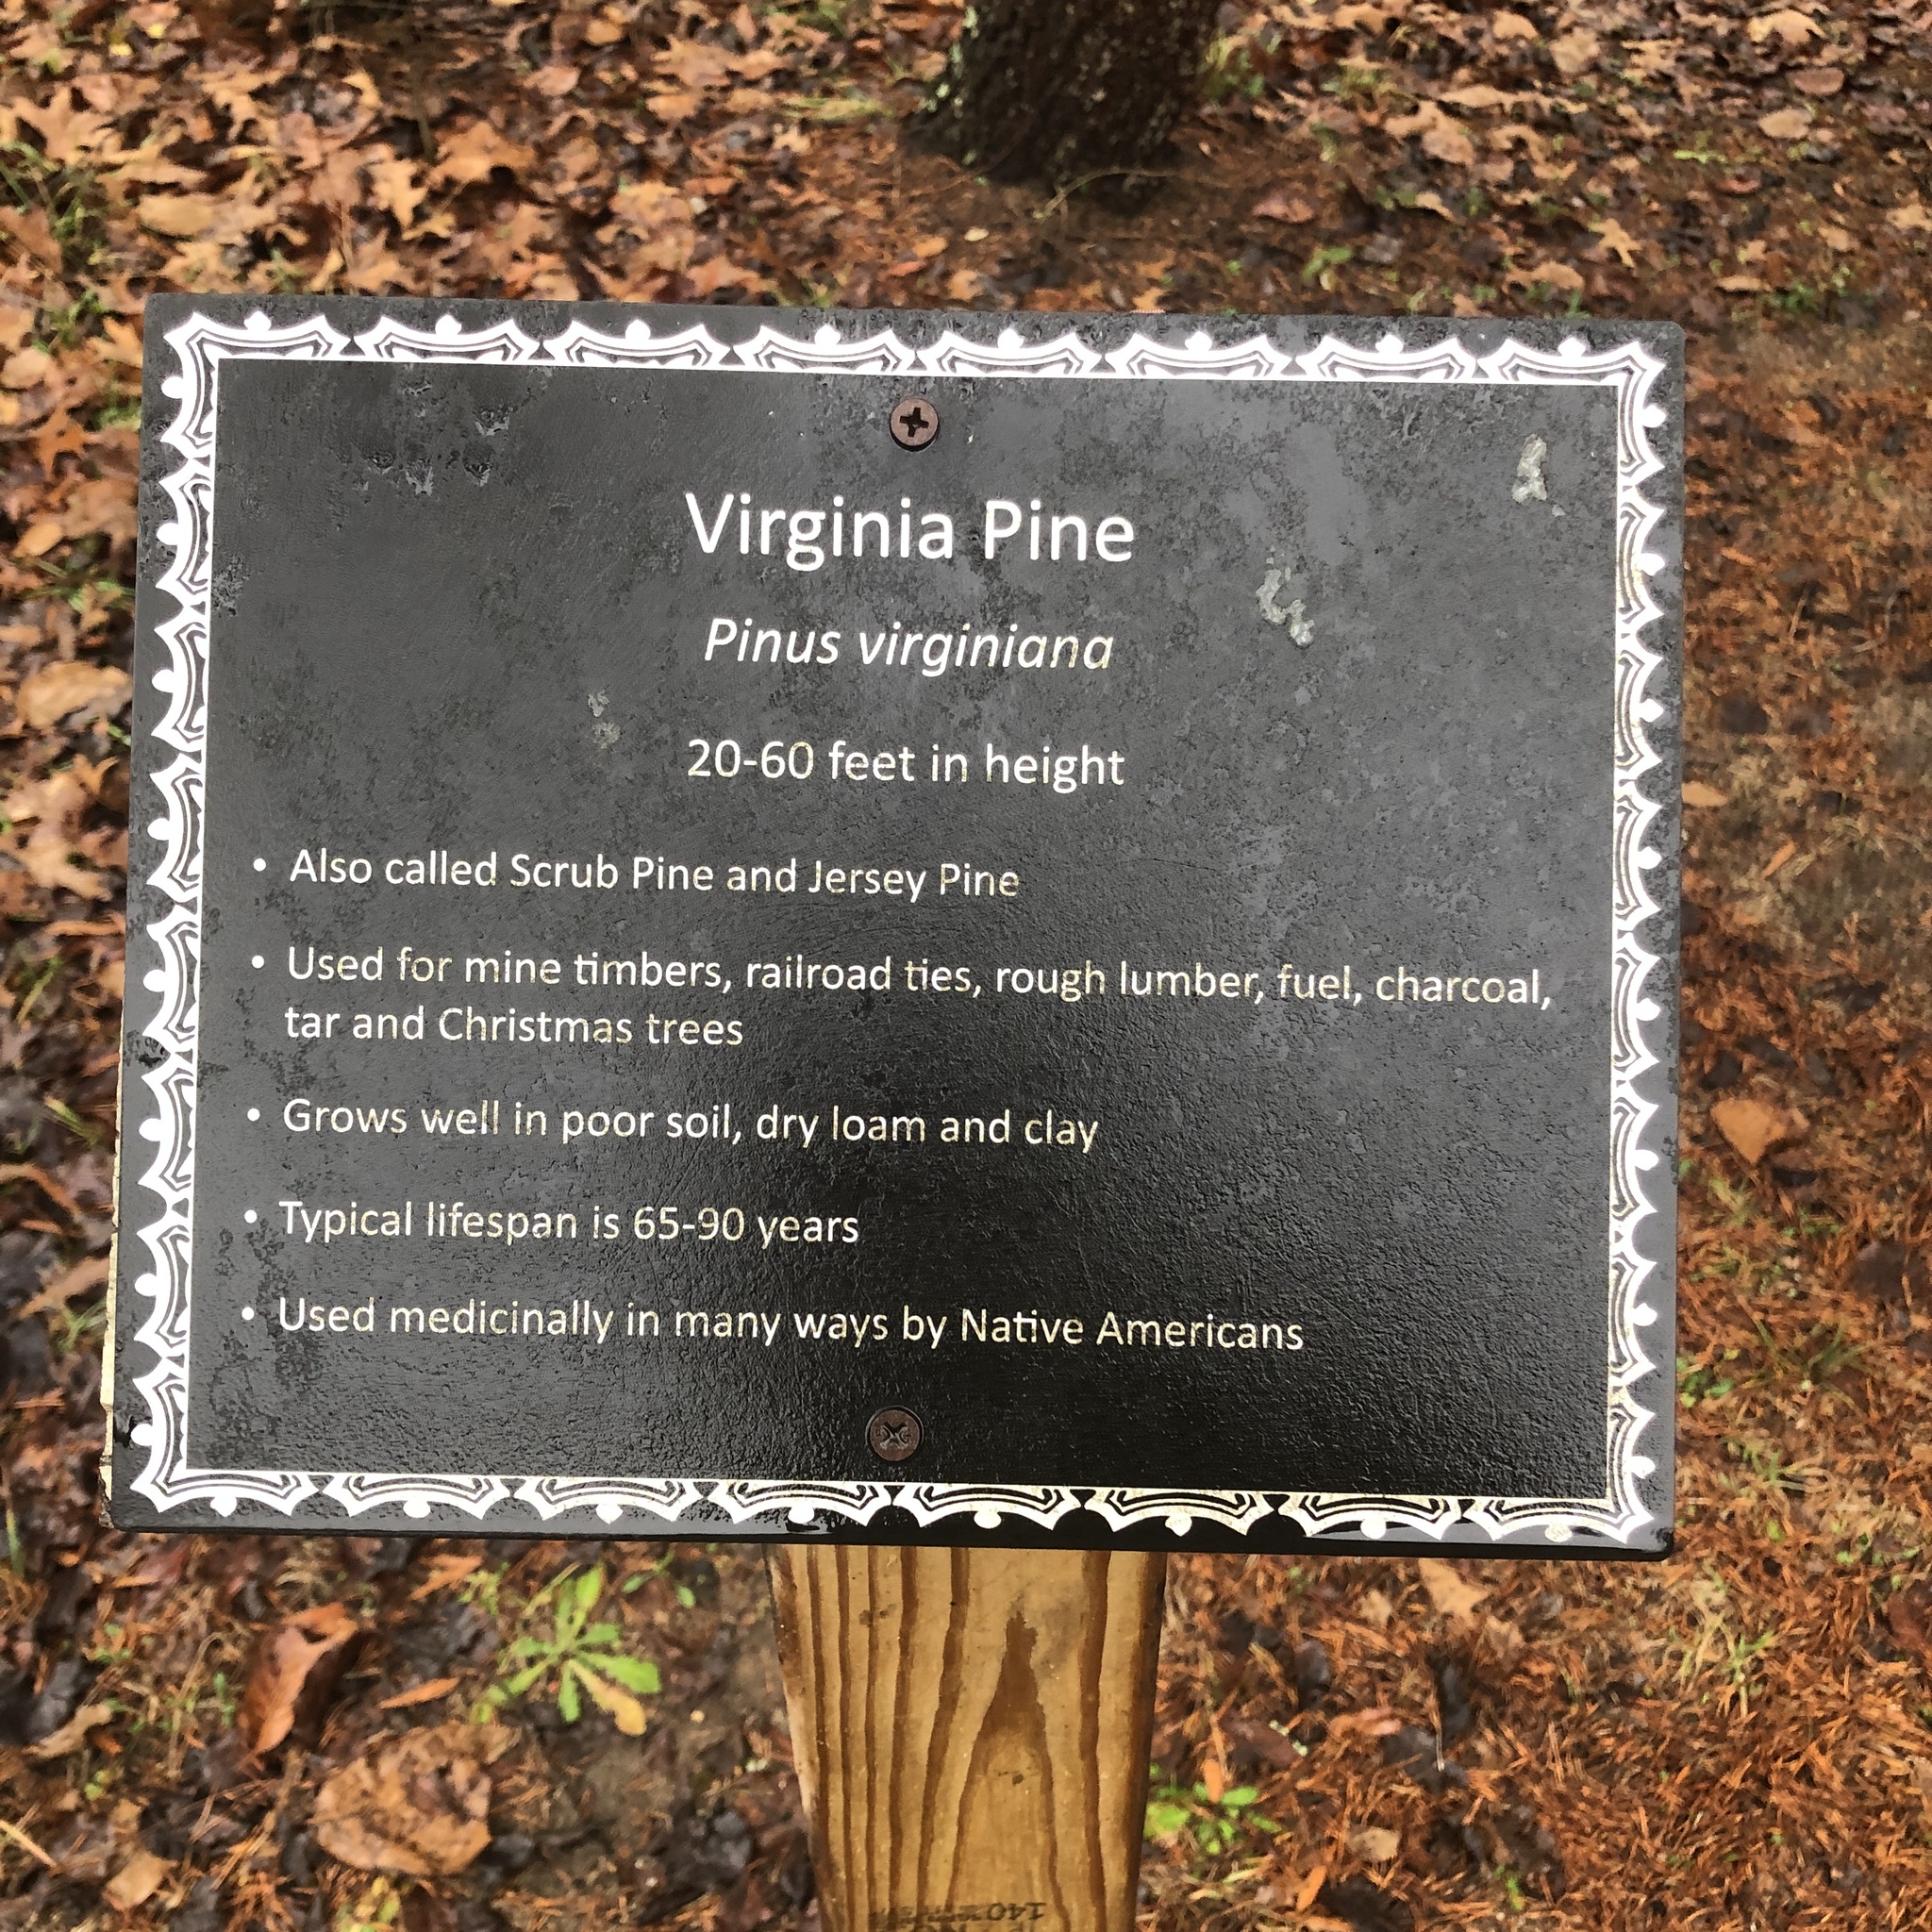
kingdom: Plantae
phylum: Tracheophyta
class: Pinopsida
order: Pinales
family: Pinaceae
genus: Pinus
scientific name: Pinus virginiana
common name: Scrub pine
